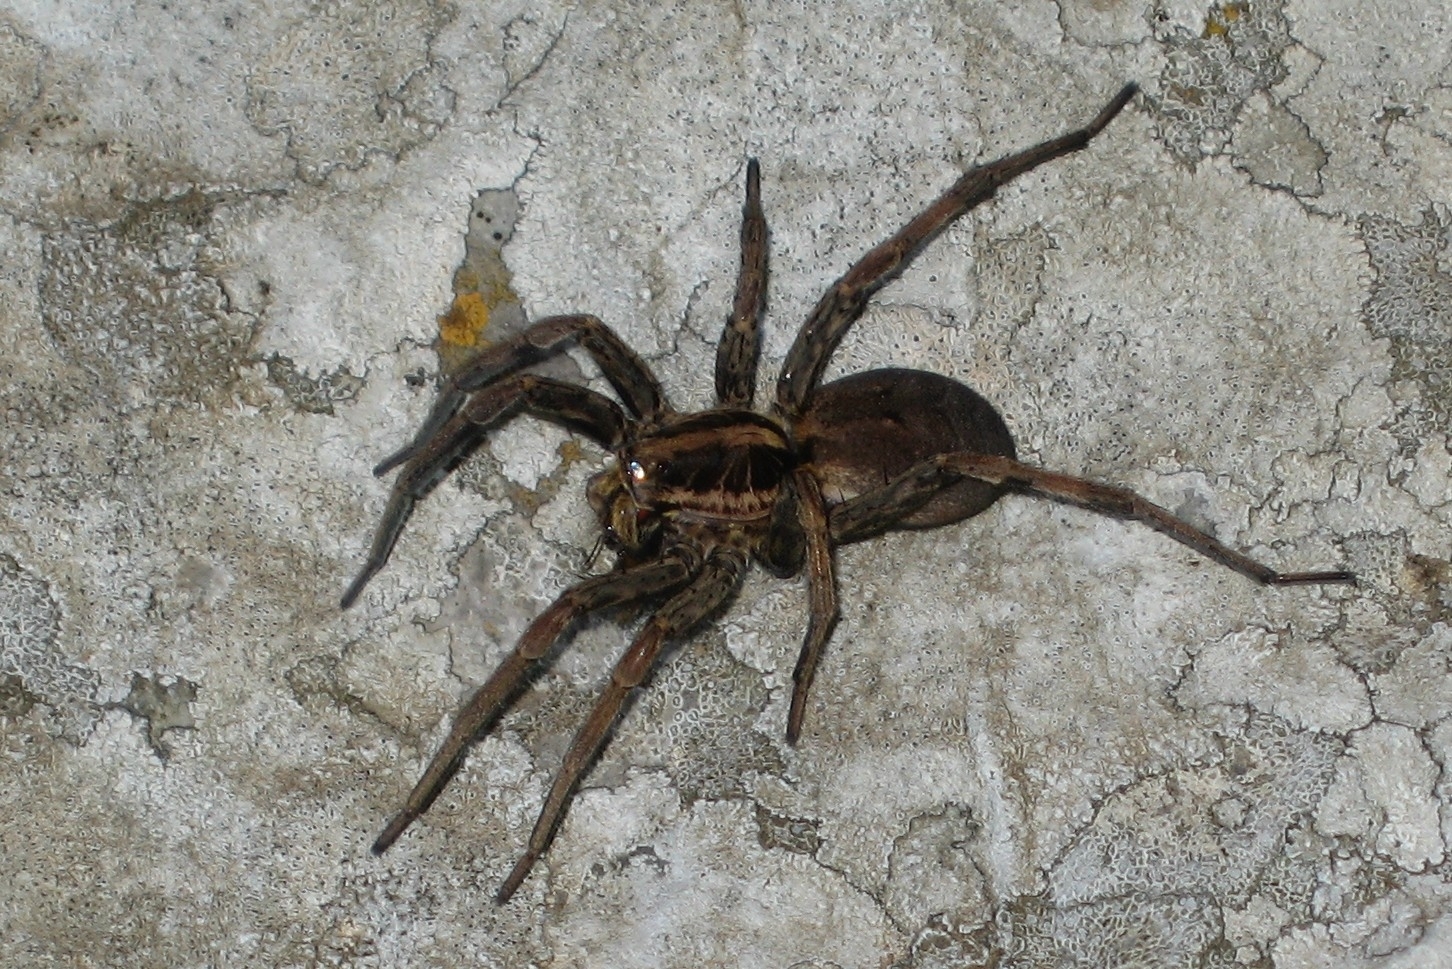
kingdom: Animalia
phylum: Arthropoda
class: Arachnida
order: Araneae
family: Lycosidae
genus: Hogna
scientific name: Hogna radiata
